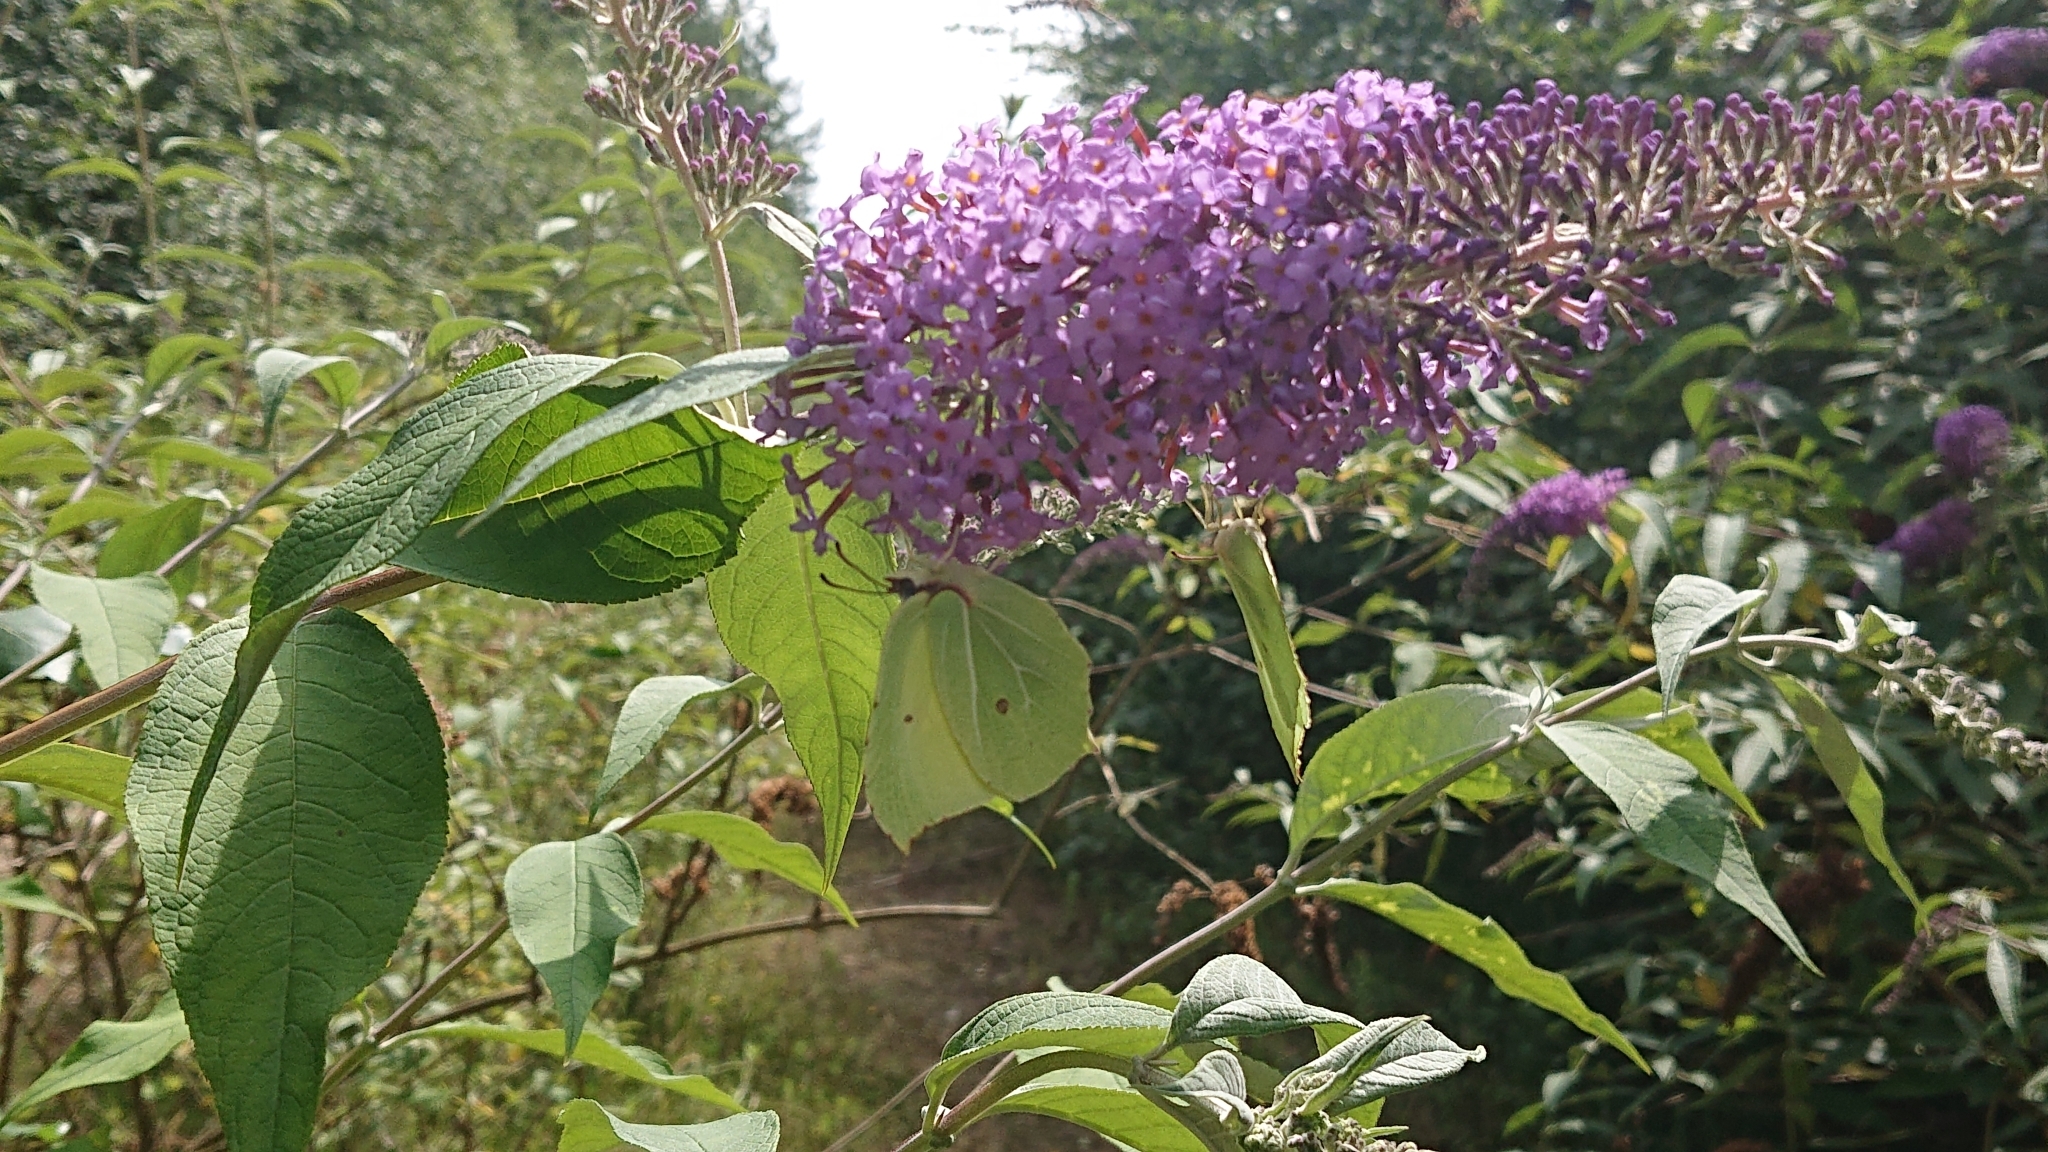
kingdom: Animalia
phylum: Arthropoda
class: Insecta
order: Lepidoptera
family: Pieridae
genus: Gonepteryx
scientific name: Gonepteryx rhamni
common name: Brimstone
